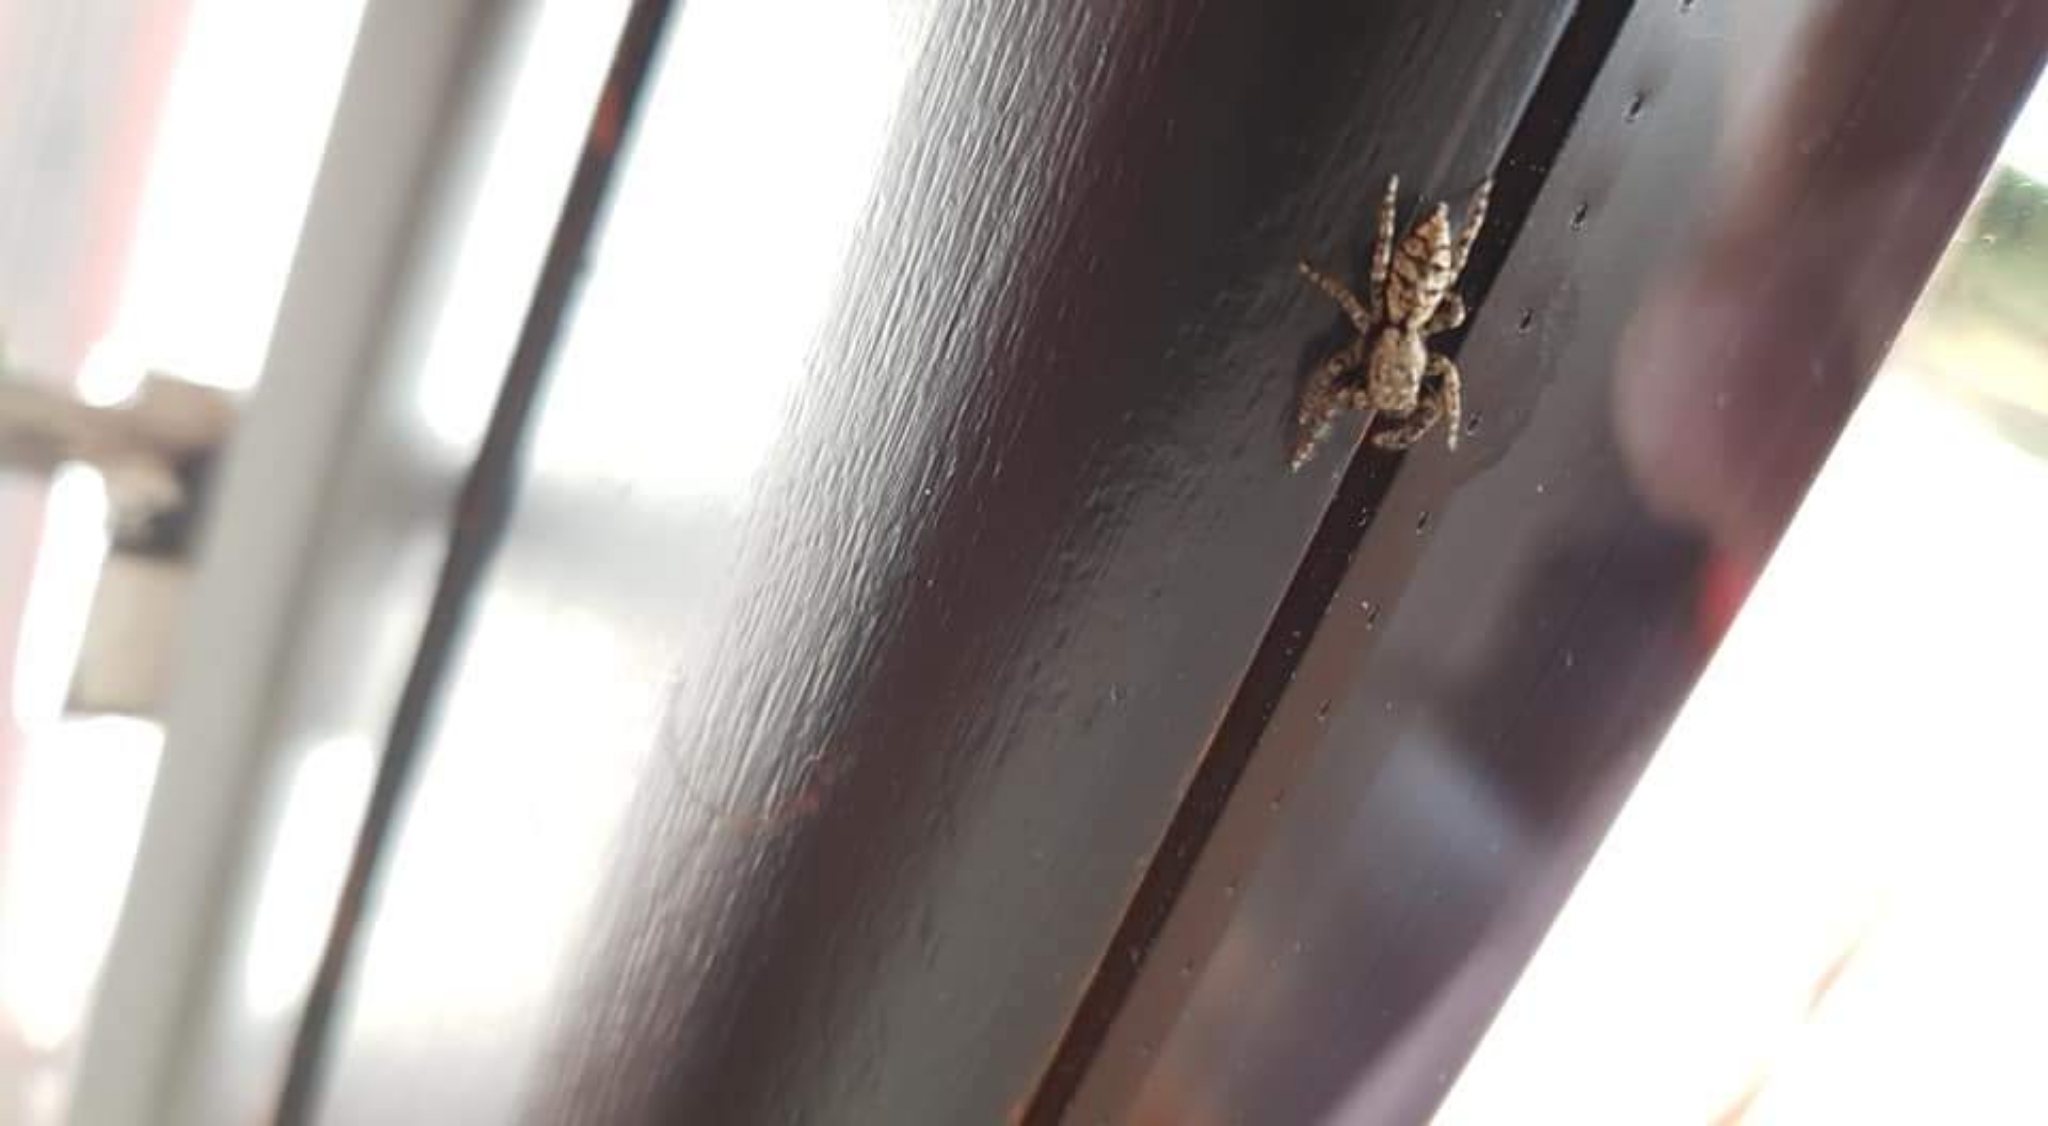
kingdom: Animalia
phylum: Arthropoda
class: Arachnida
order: Araneae
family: Salticidae
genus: Marpissa
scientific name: Marpissa muscosa
